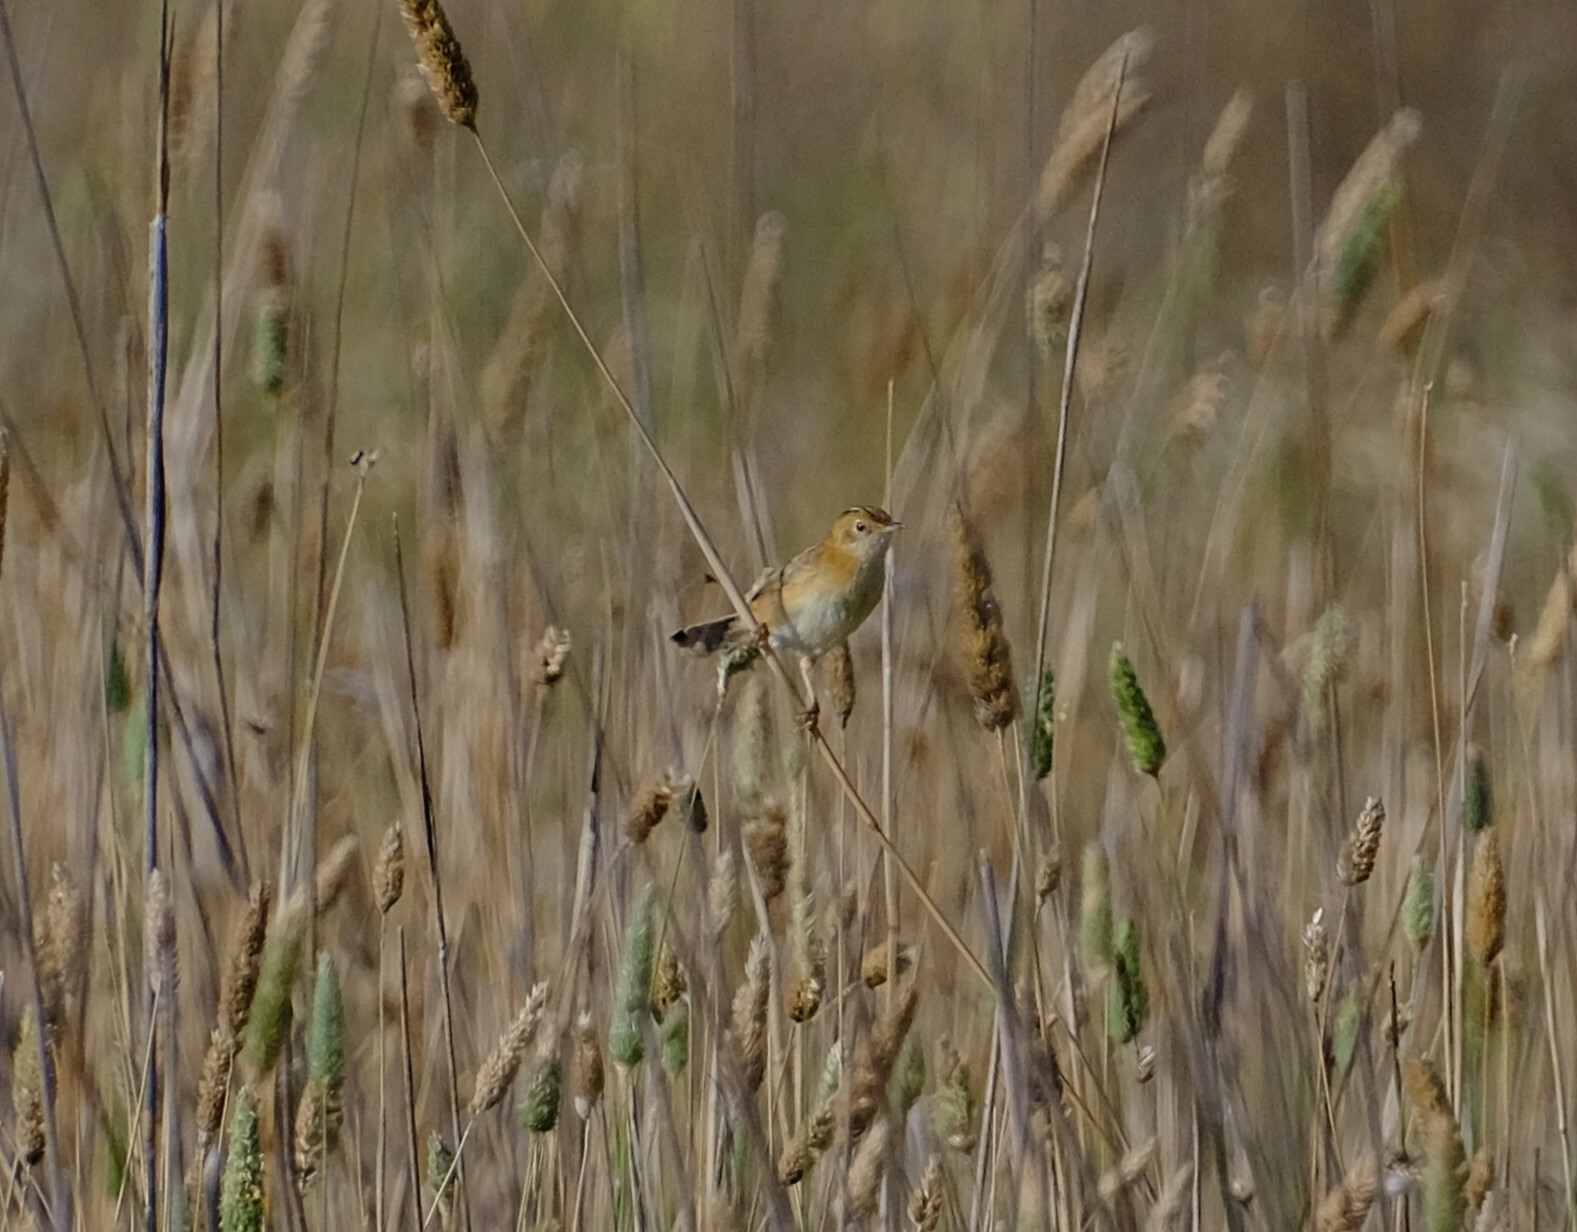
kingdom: Animalia
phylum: Chordata
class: Aves
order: Passeriformes
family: Cisticolidae
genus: Cisticola
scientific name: Cisticola exilis
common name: Golden-headed cisticola
